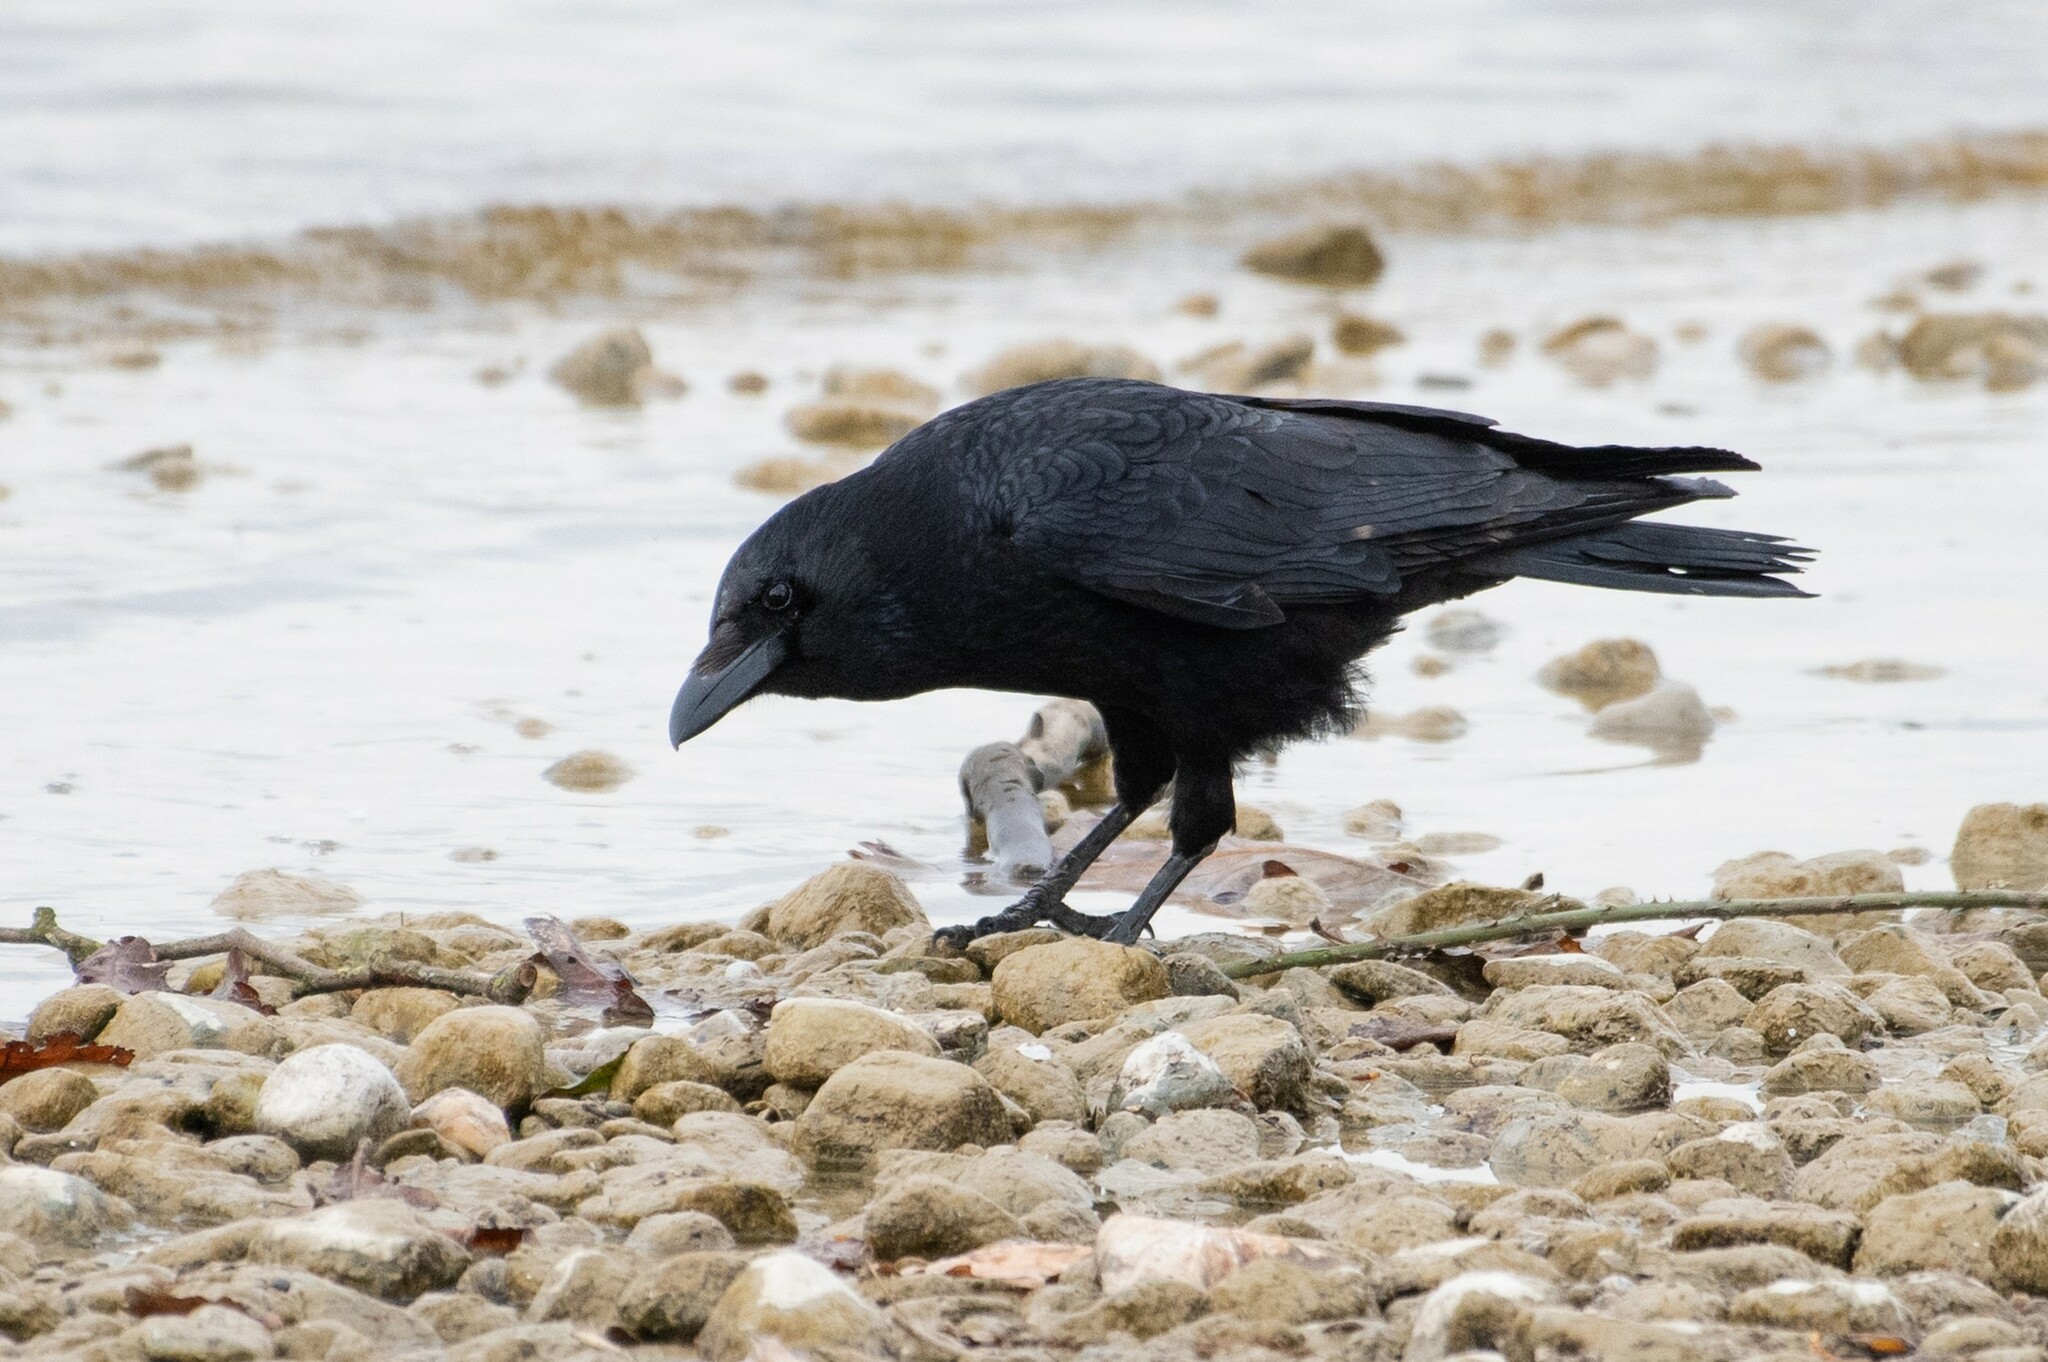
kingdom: Animalia
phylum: Chordata
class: Aves
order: Passeriformes
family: Corvidae
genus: Corvus
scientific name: Corvus corone
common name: Carrion crow
